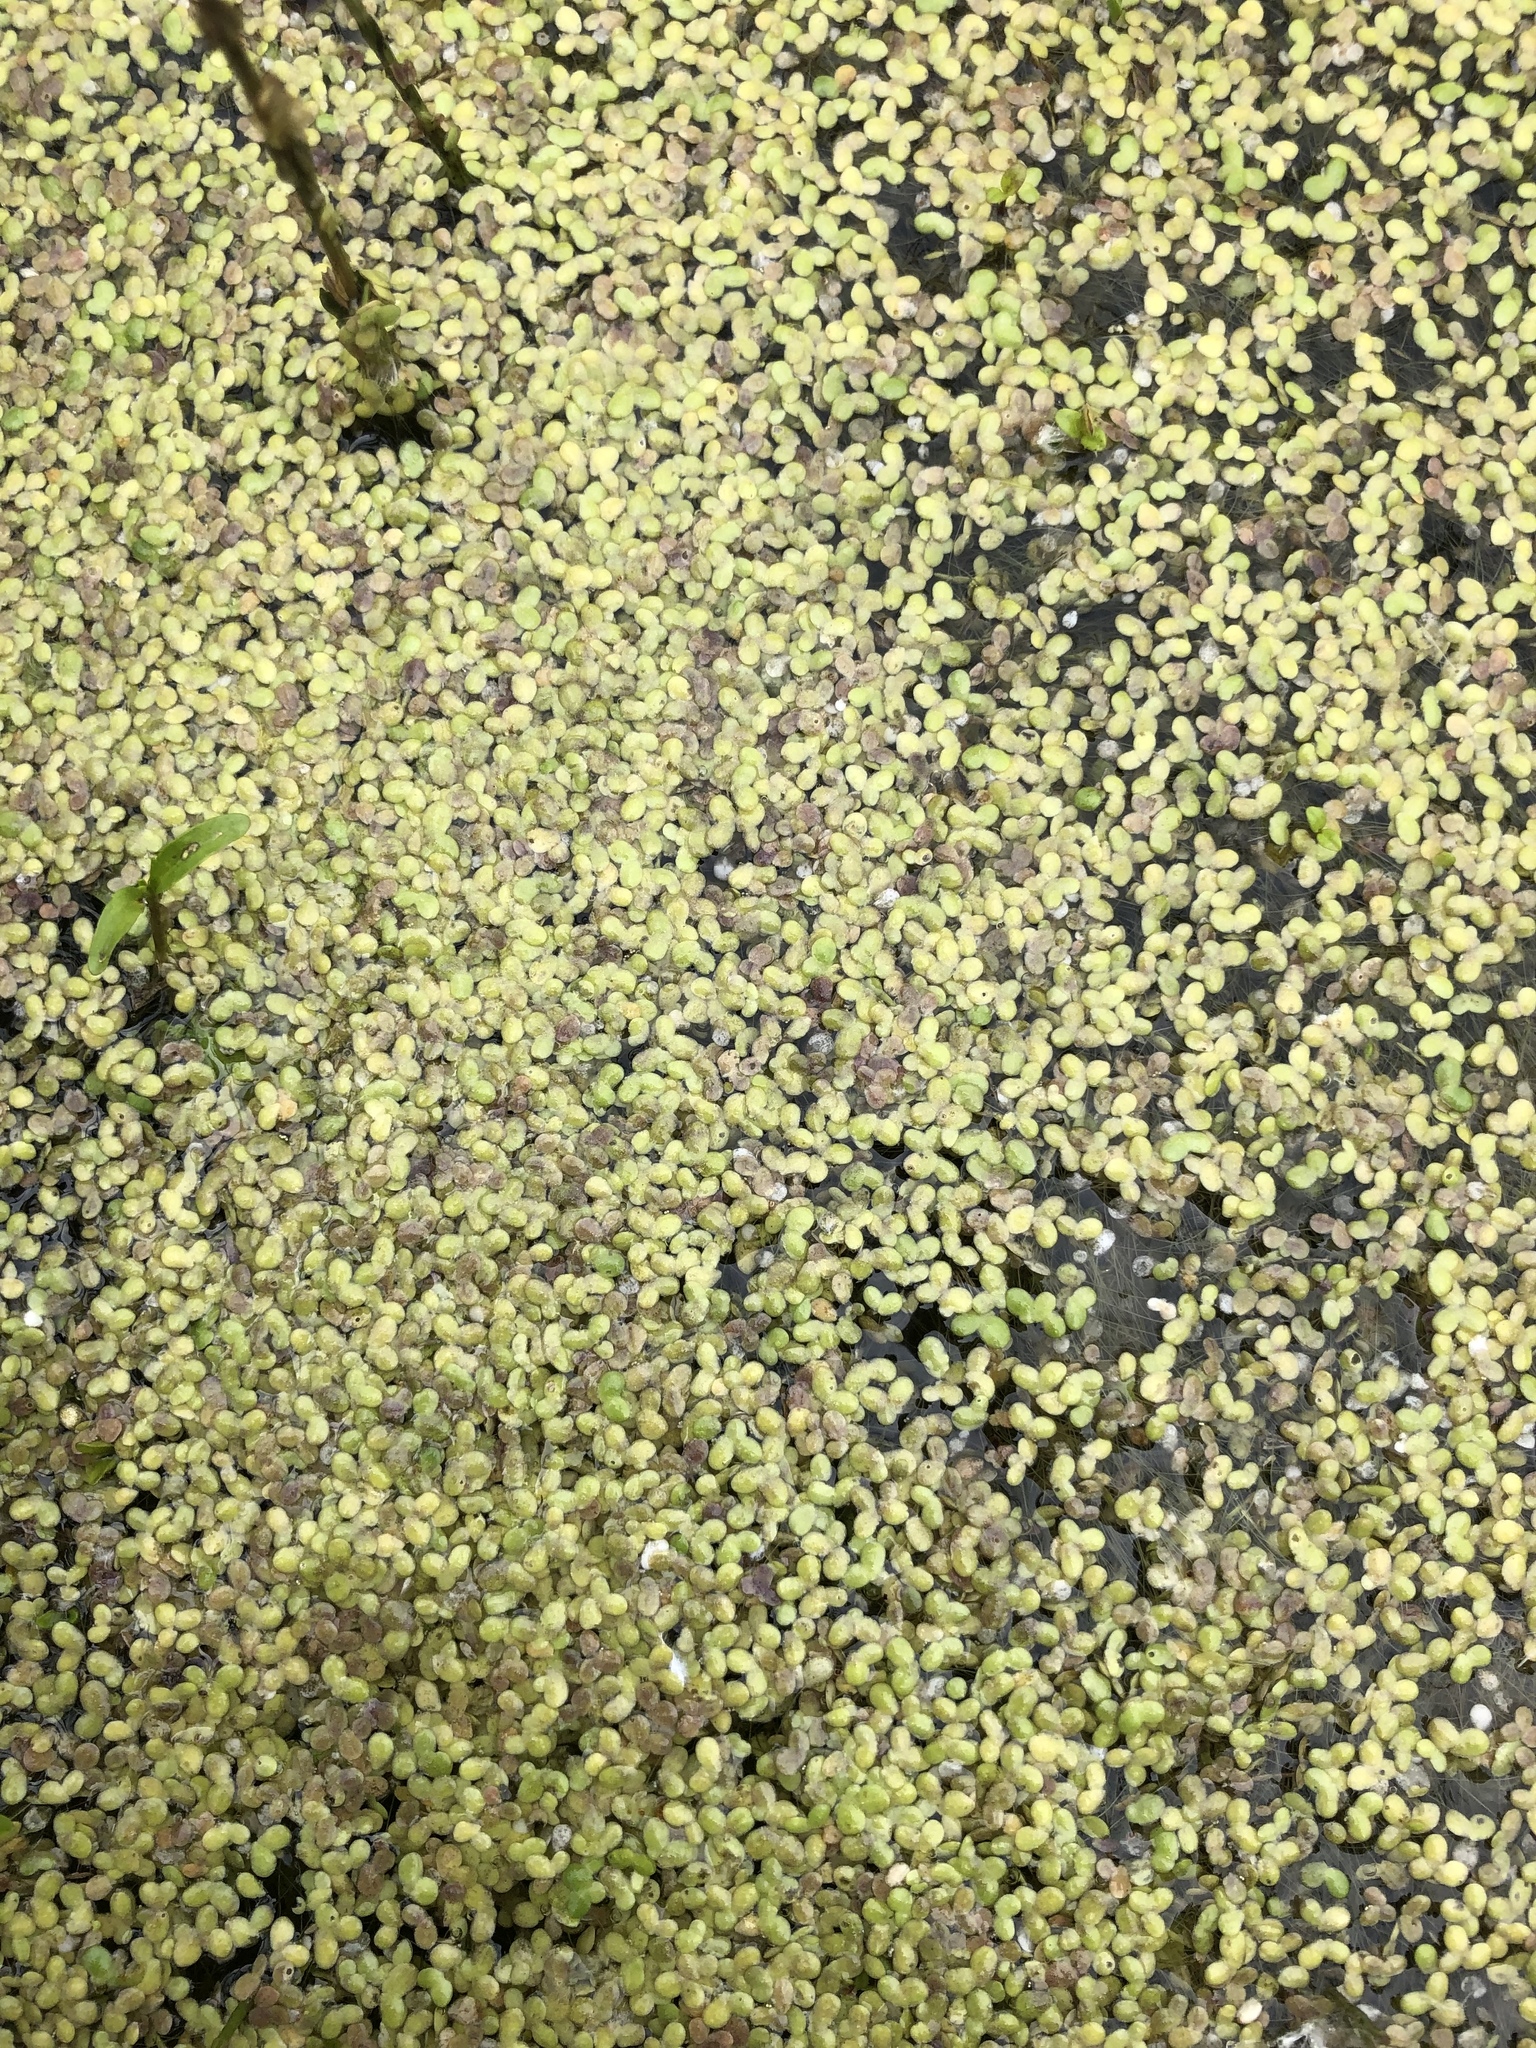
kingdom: Plantae
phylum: Tracheophyta
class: Liliopsida
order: Alismatales
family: Araceae
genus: Lemna
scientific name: Lemna turionifera
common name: Perennial duckweed
